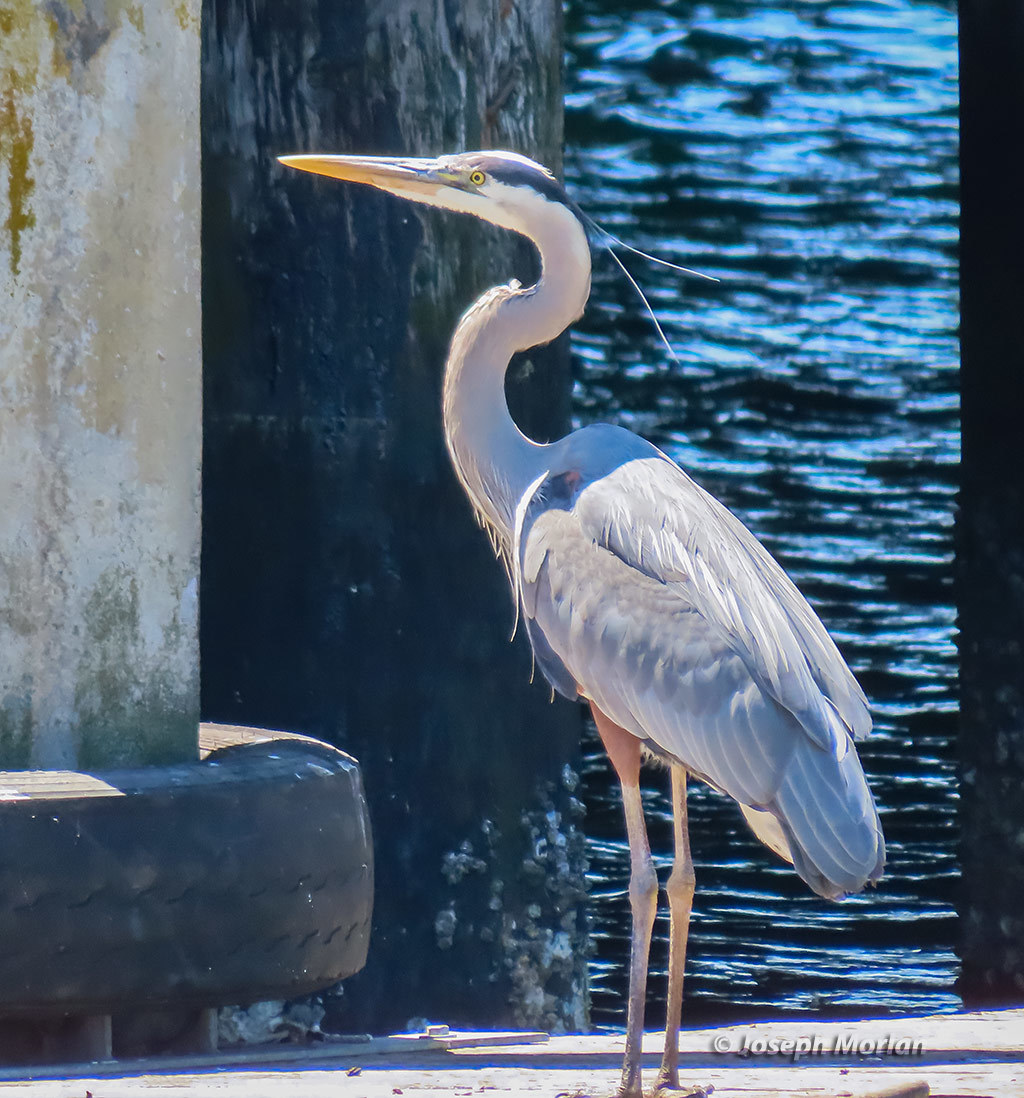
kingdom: Animalia
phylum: Chordata
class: Aves
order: Pelecaniformes
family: Ardeidae
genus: Ardea
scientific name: Ardea herodias
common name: Great blue heron
